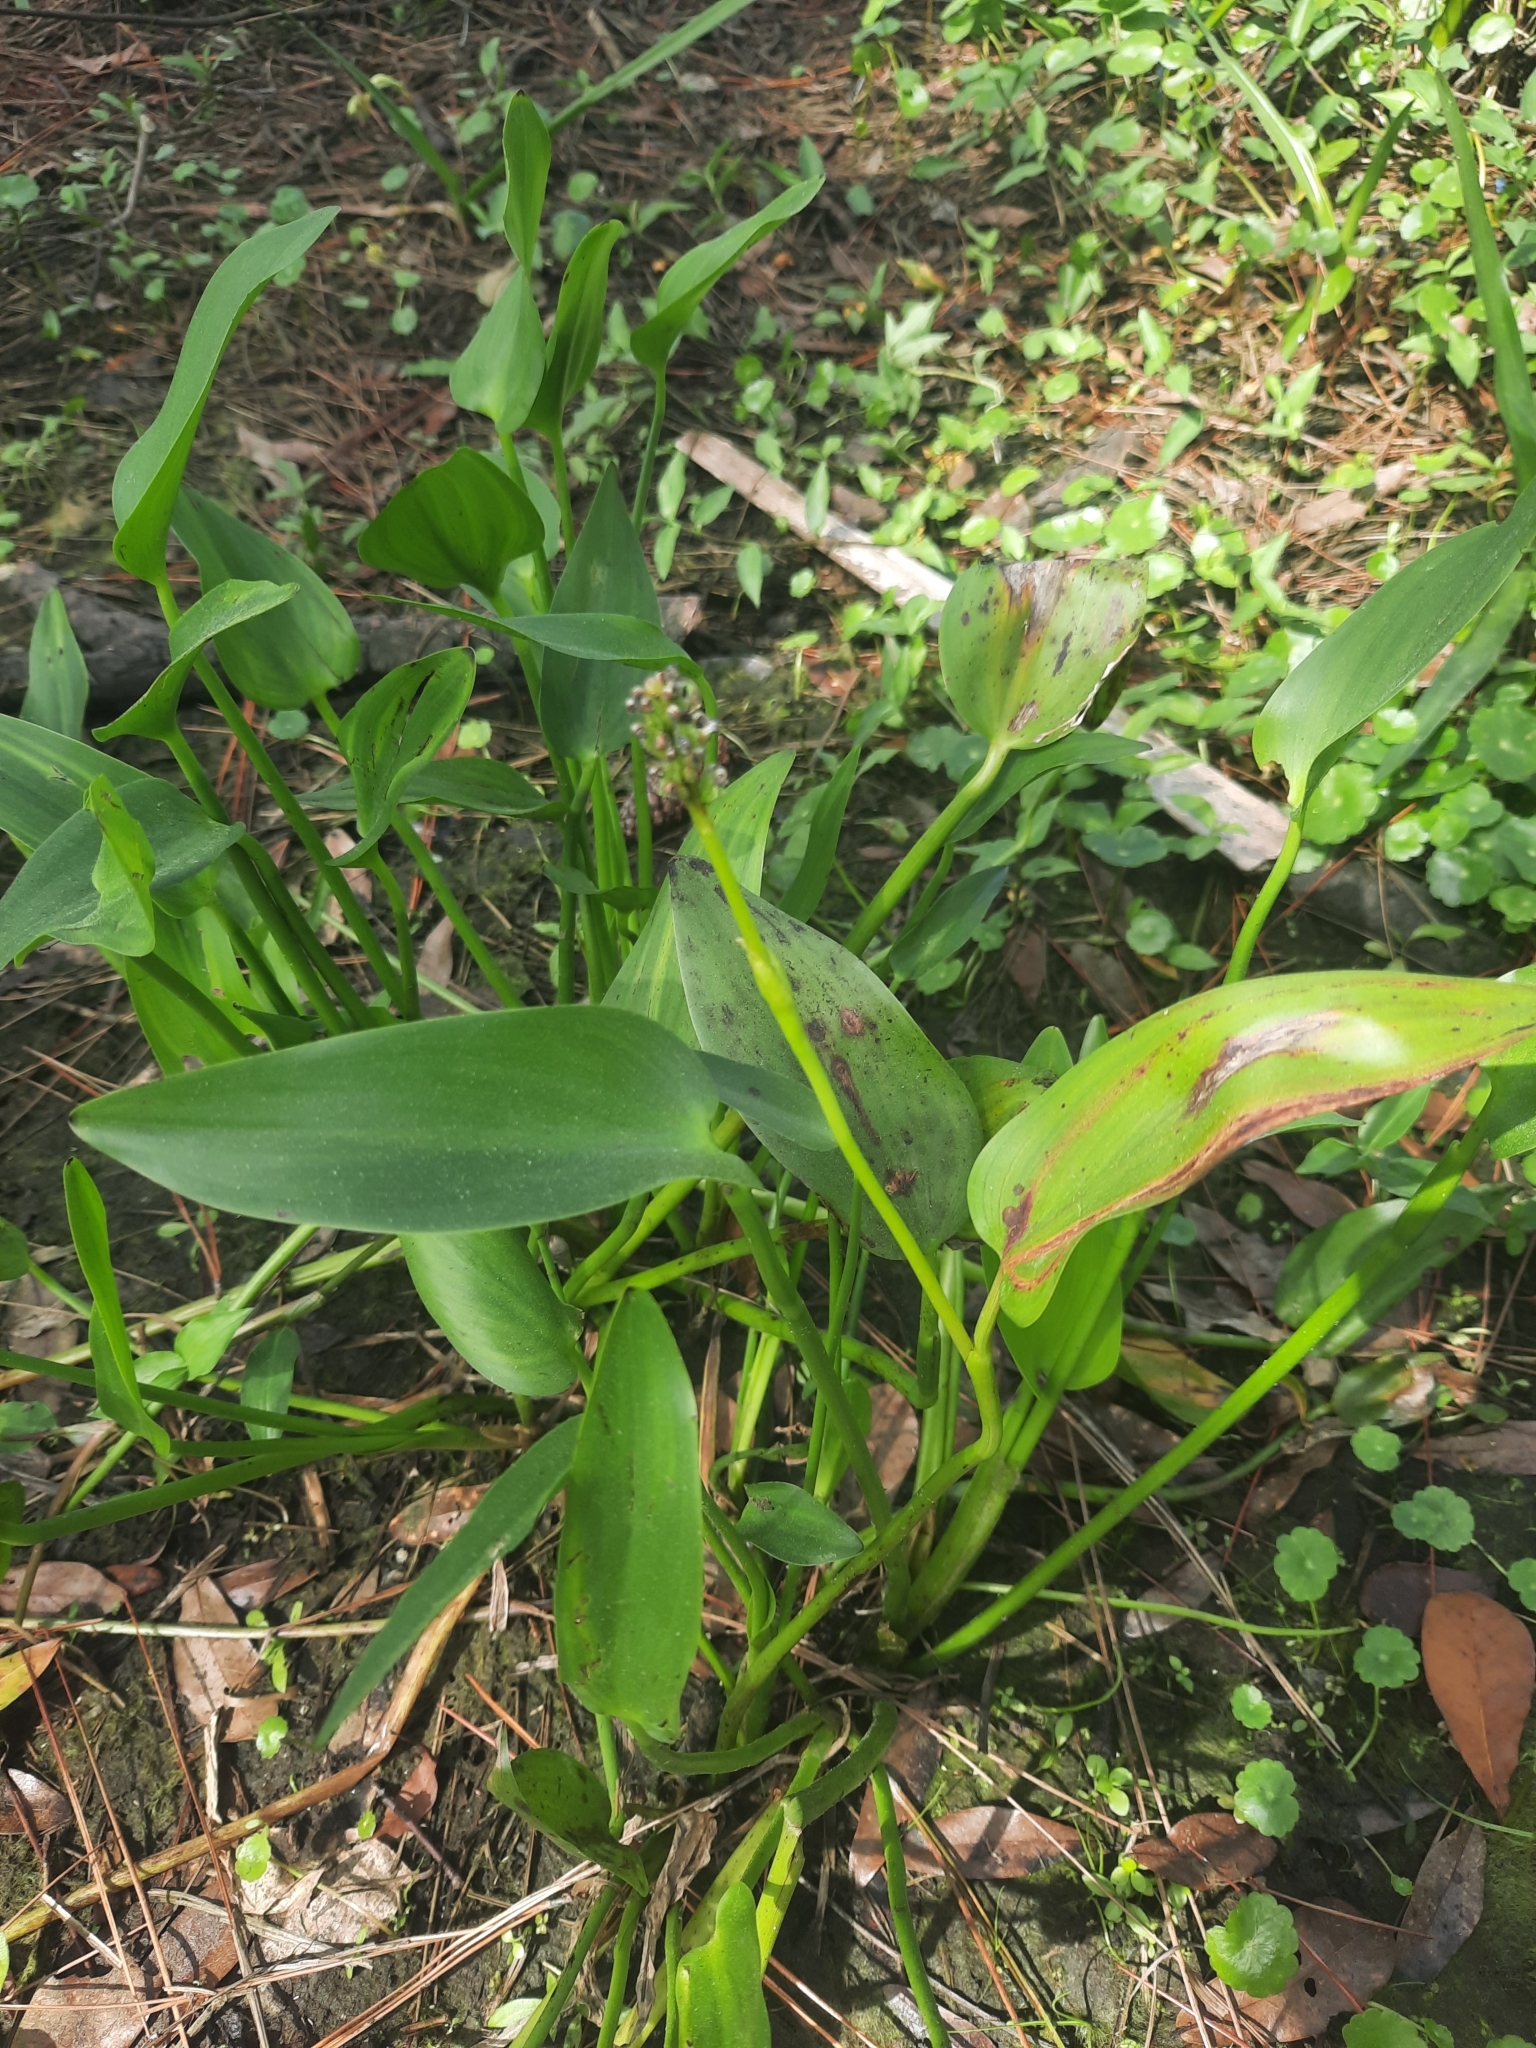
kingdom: Plantae
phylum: Tracheophyta
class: Liliopsida
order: Commelinales
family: Pontederiaceae
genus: Pontederia
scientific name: Pontederia cordata
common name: Pickerelweed
